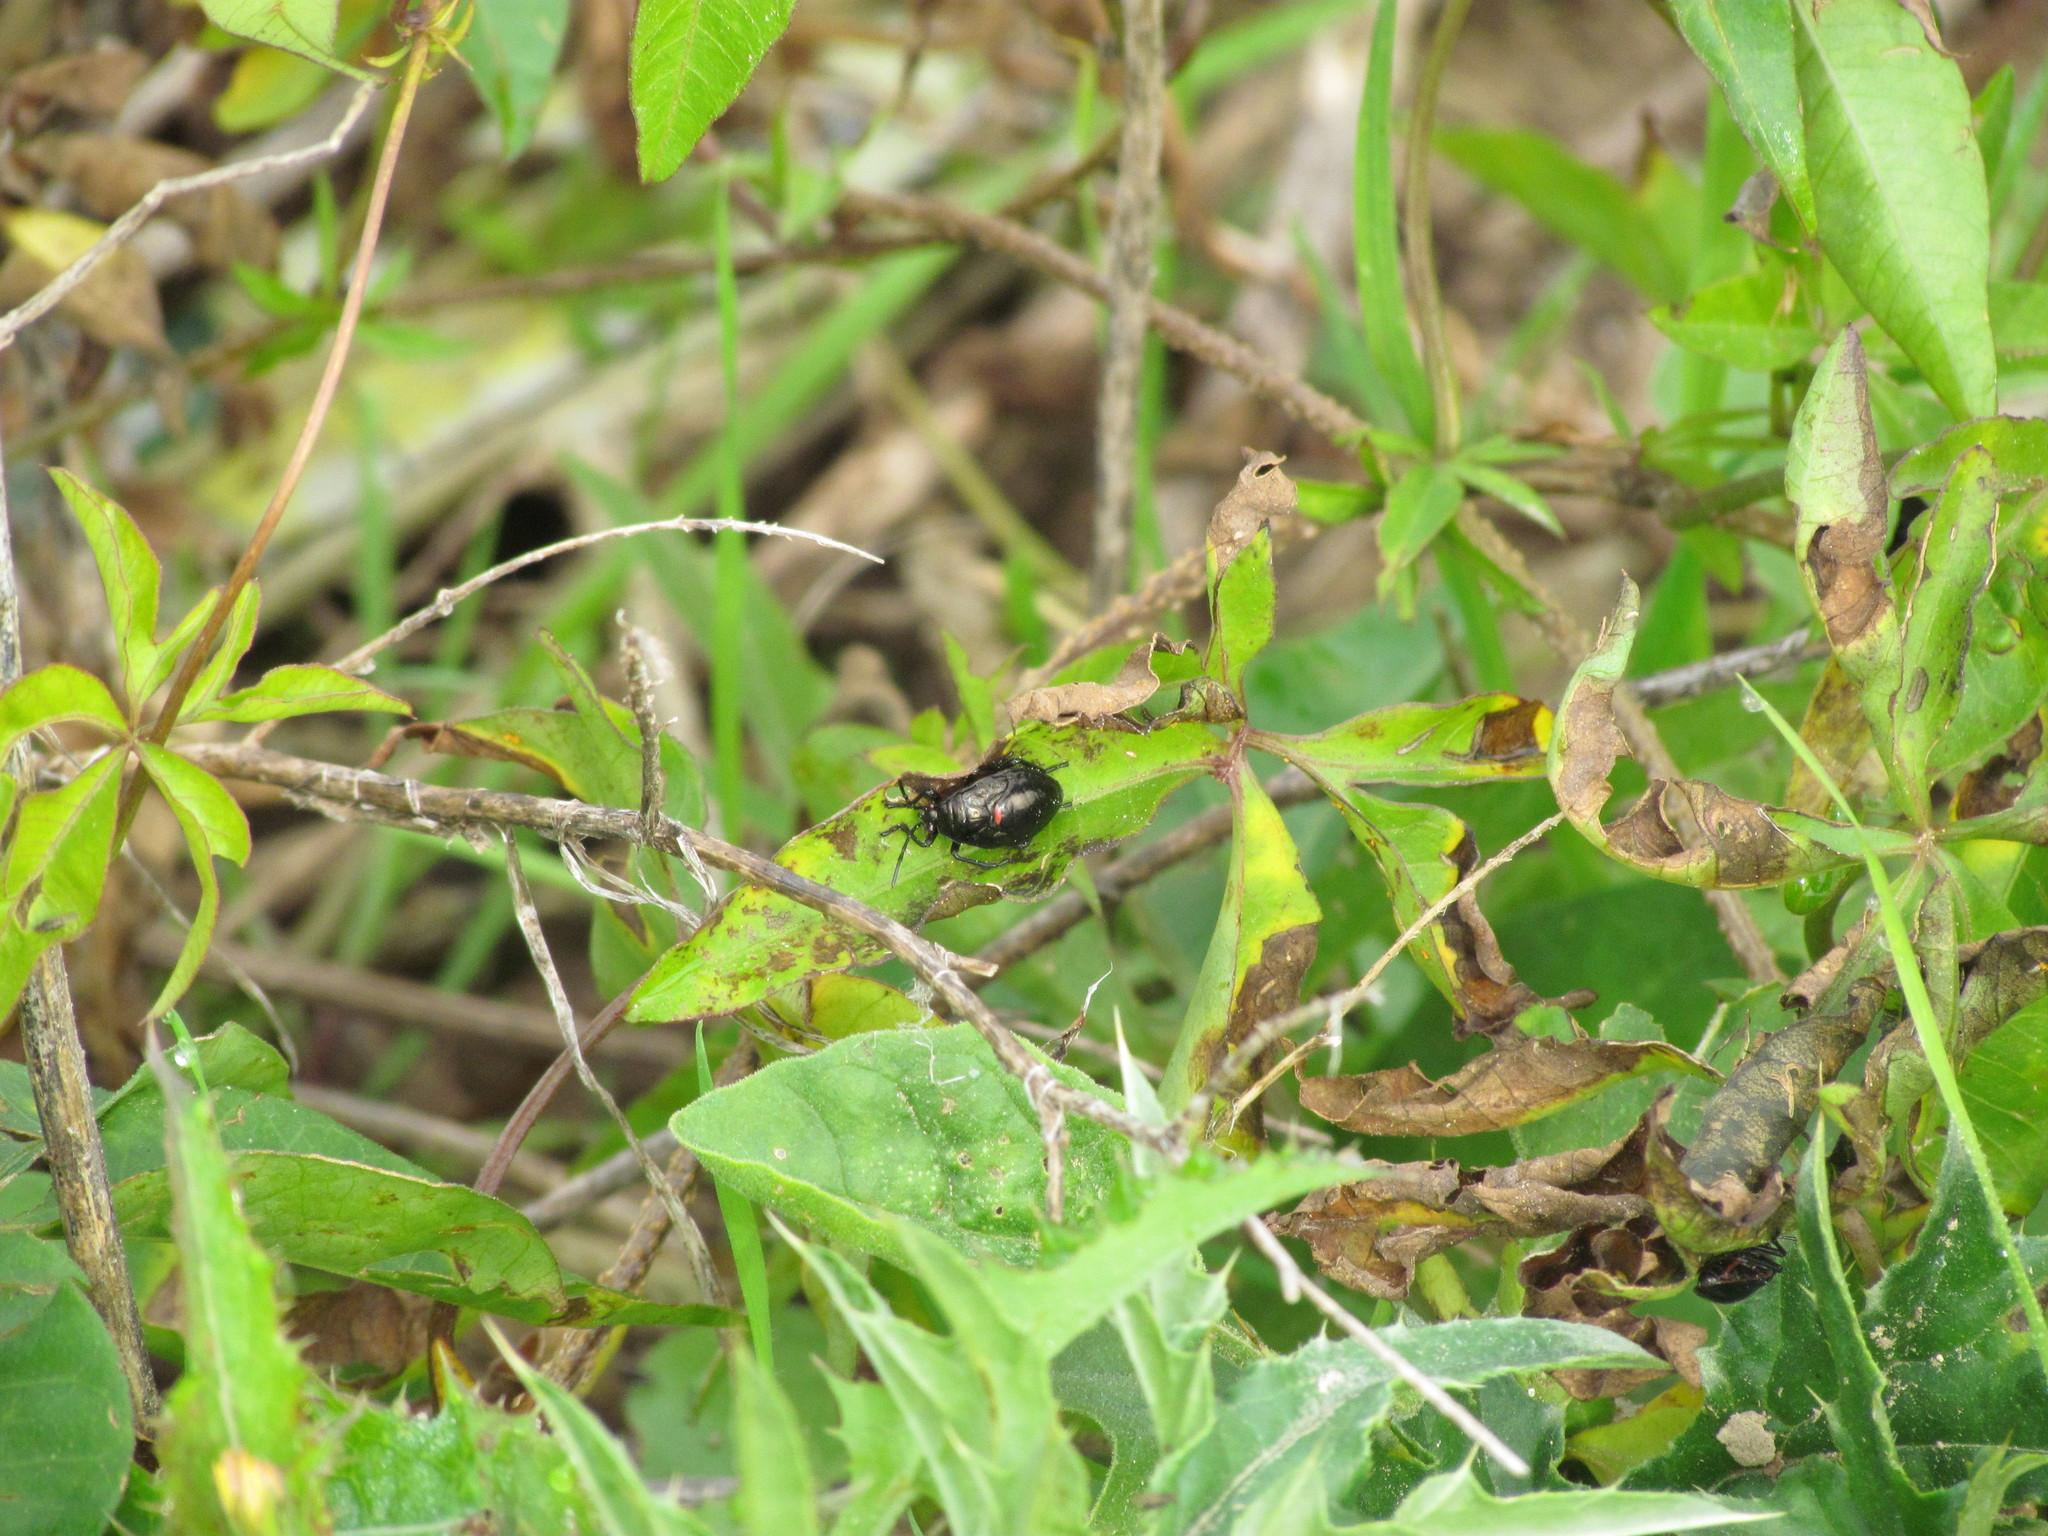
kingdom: Animalia
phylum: Arthropoda
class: Insecta
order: Hemiptera
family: Largidae
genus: Largus
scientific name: Largus rufipennis
